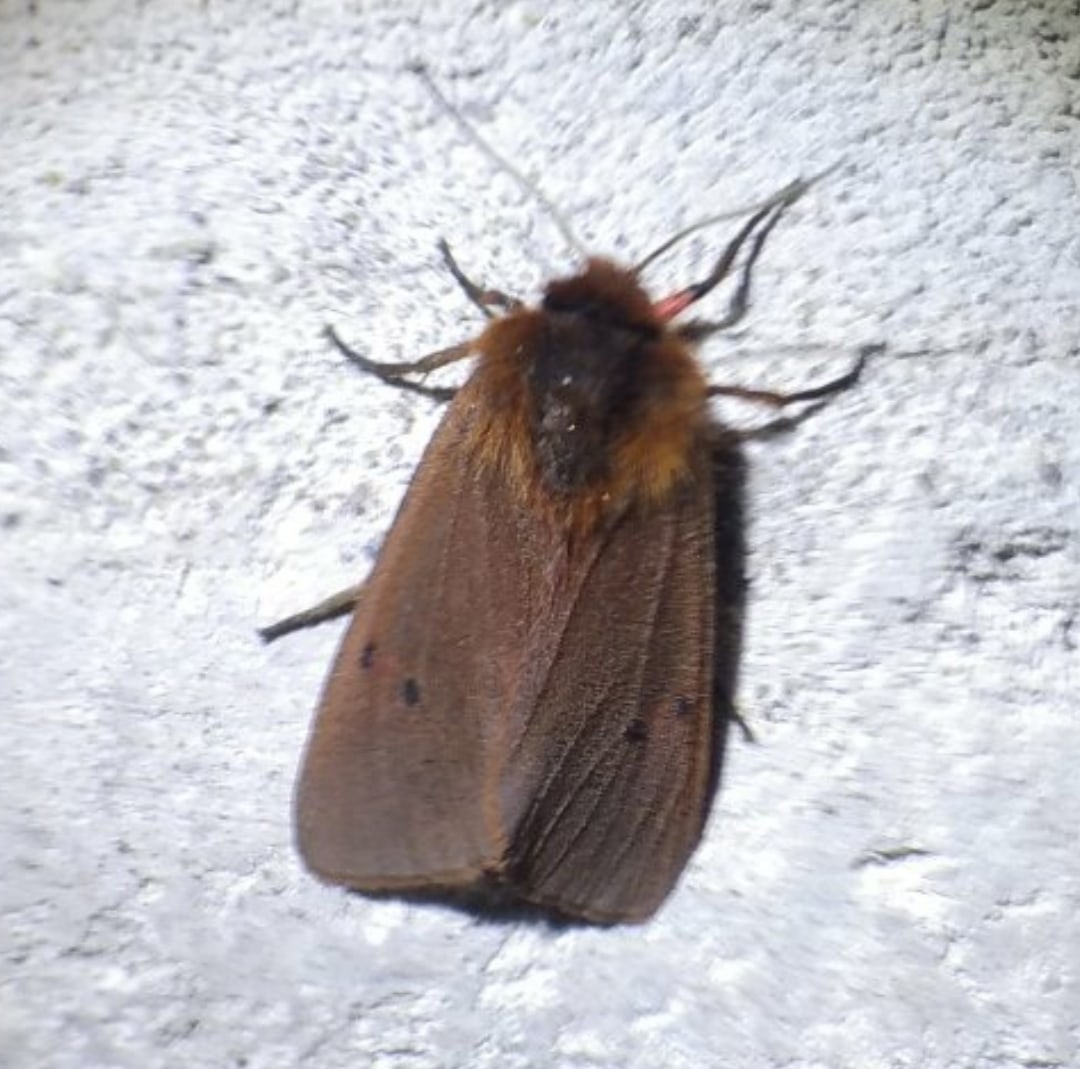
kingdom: Animalia
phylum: Arthropoda
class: Insecta
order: Lepidoptera
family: Erebidae
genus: Phragmatobia
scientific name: Phragmatobia fuliginosa
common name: Ruby tiger
